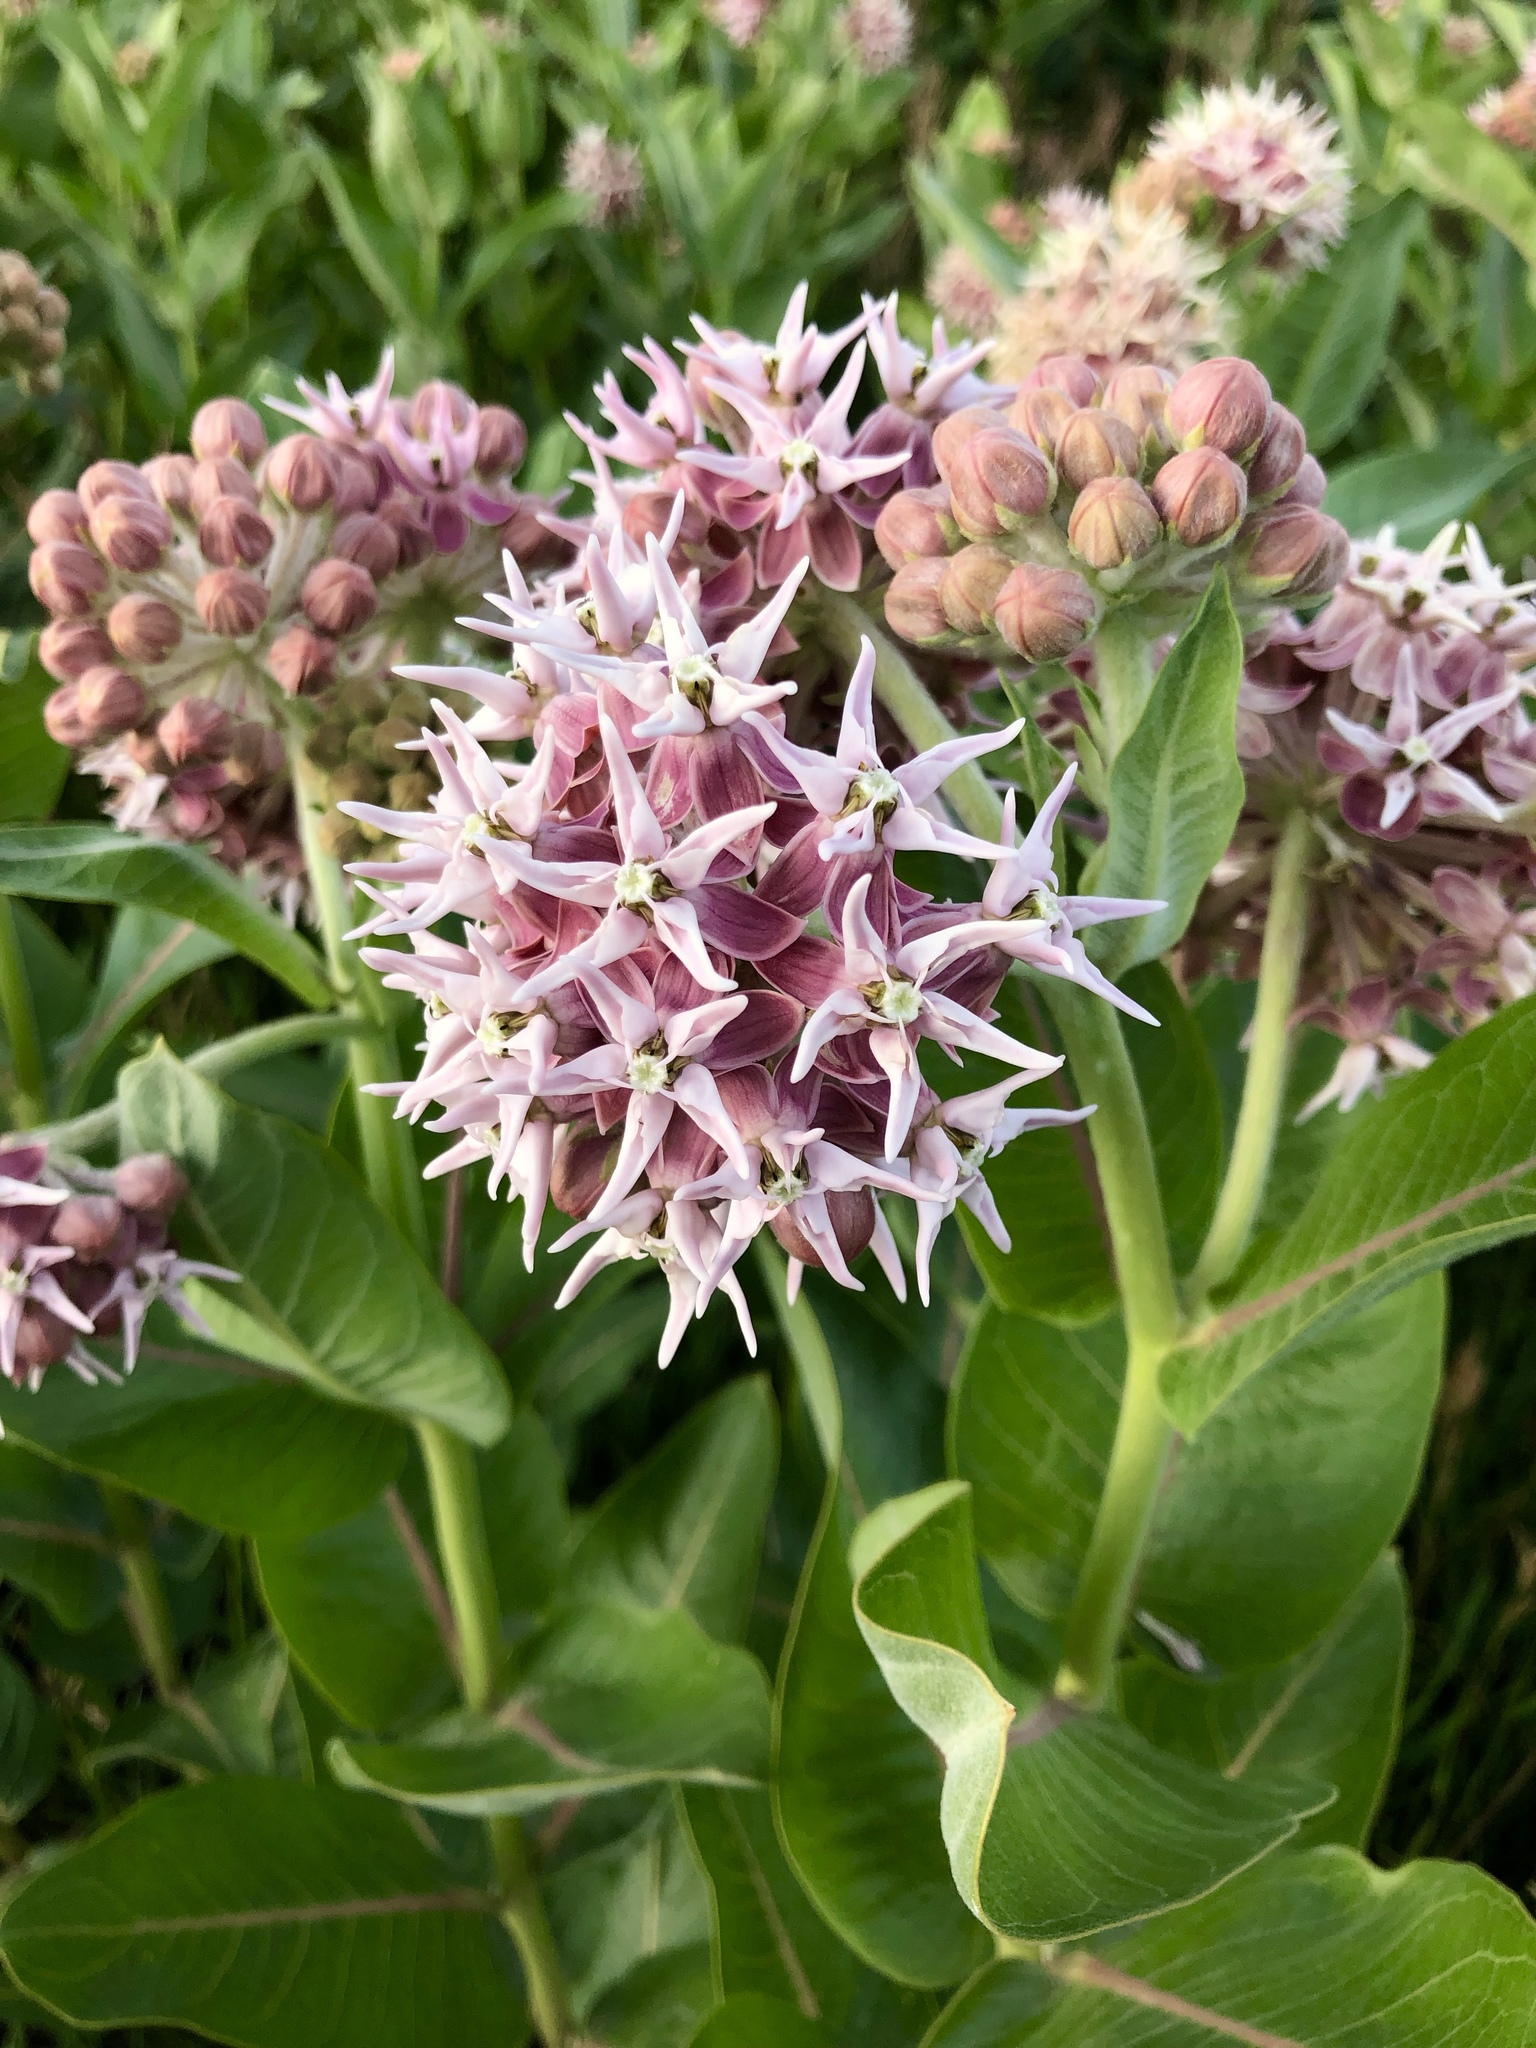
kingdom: Plantae
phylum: Tracheophyta
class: Magnoliopsida
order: Gentianales
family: Apocynaceae
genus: Asclepias
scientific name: Asclepias speciosa
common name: Showy milkweed
